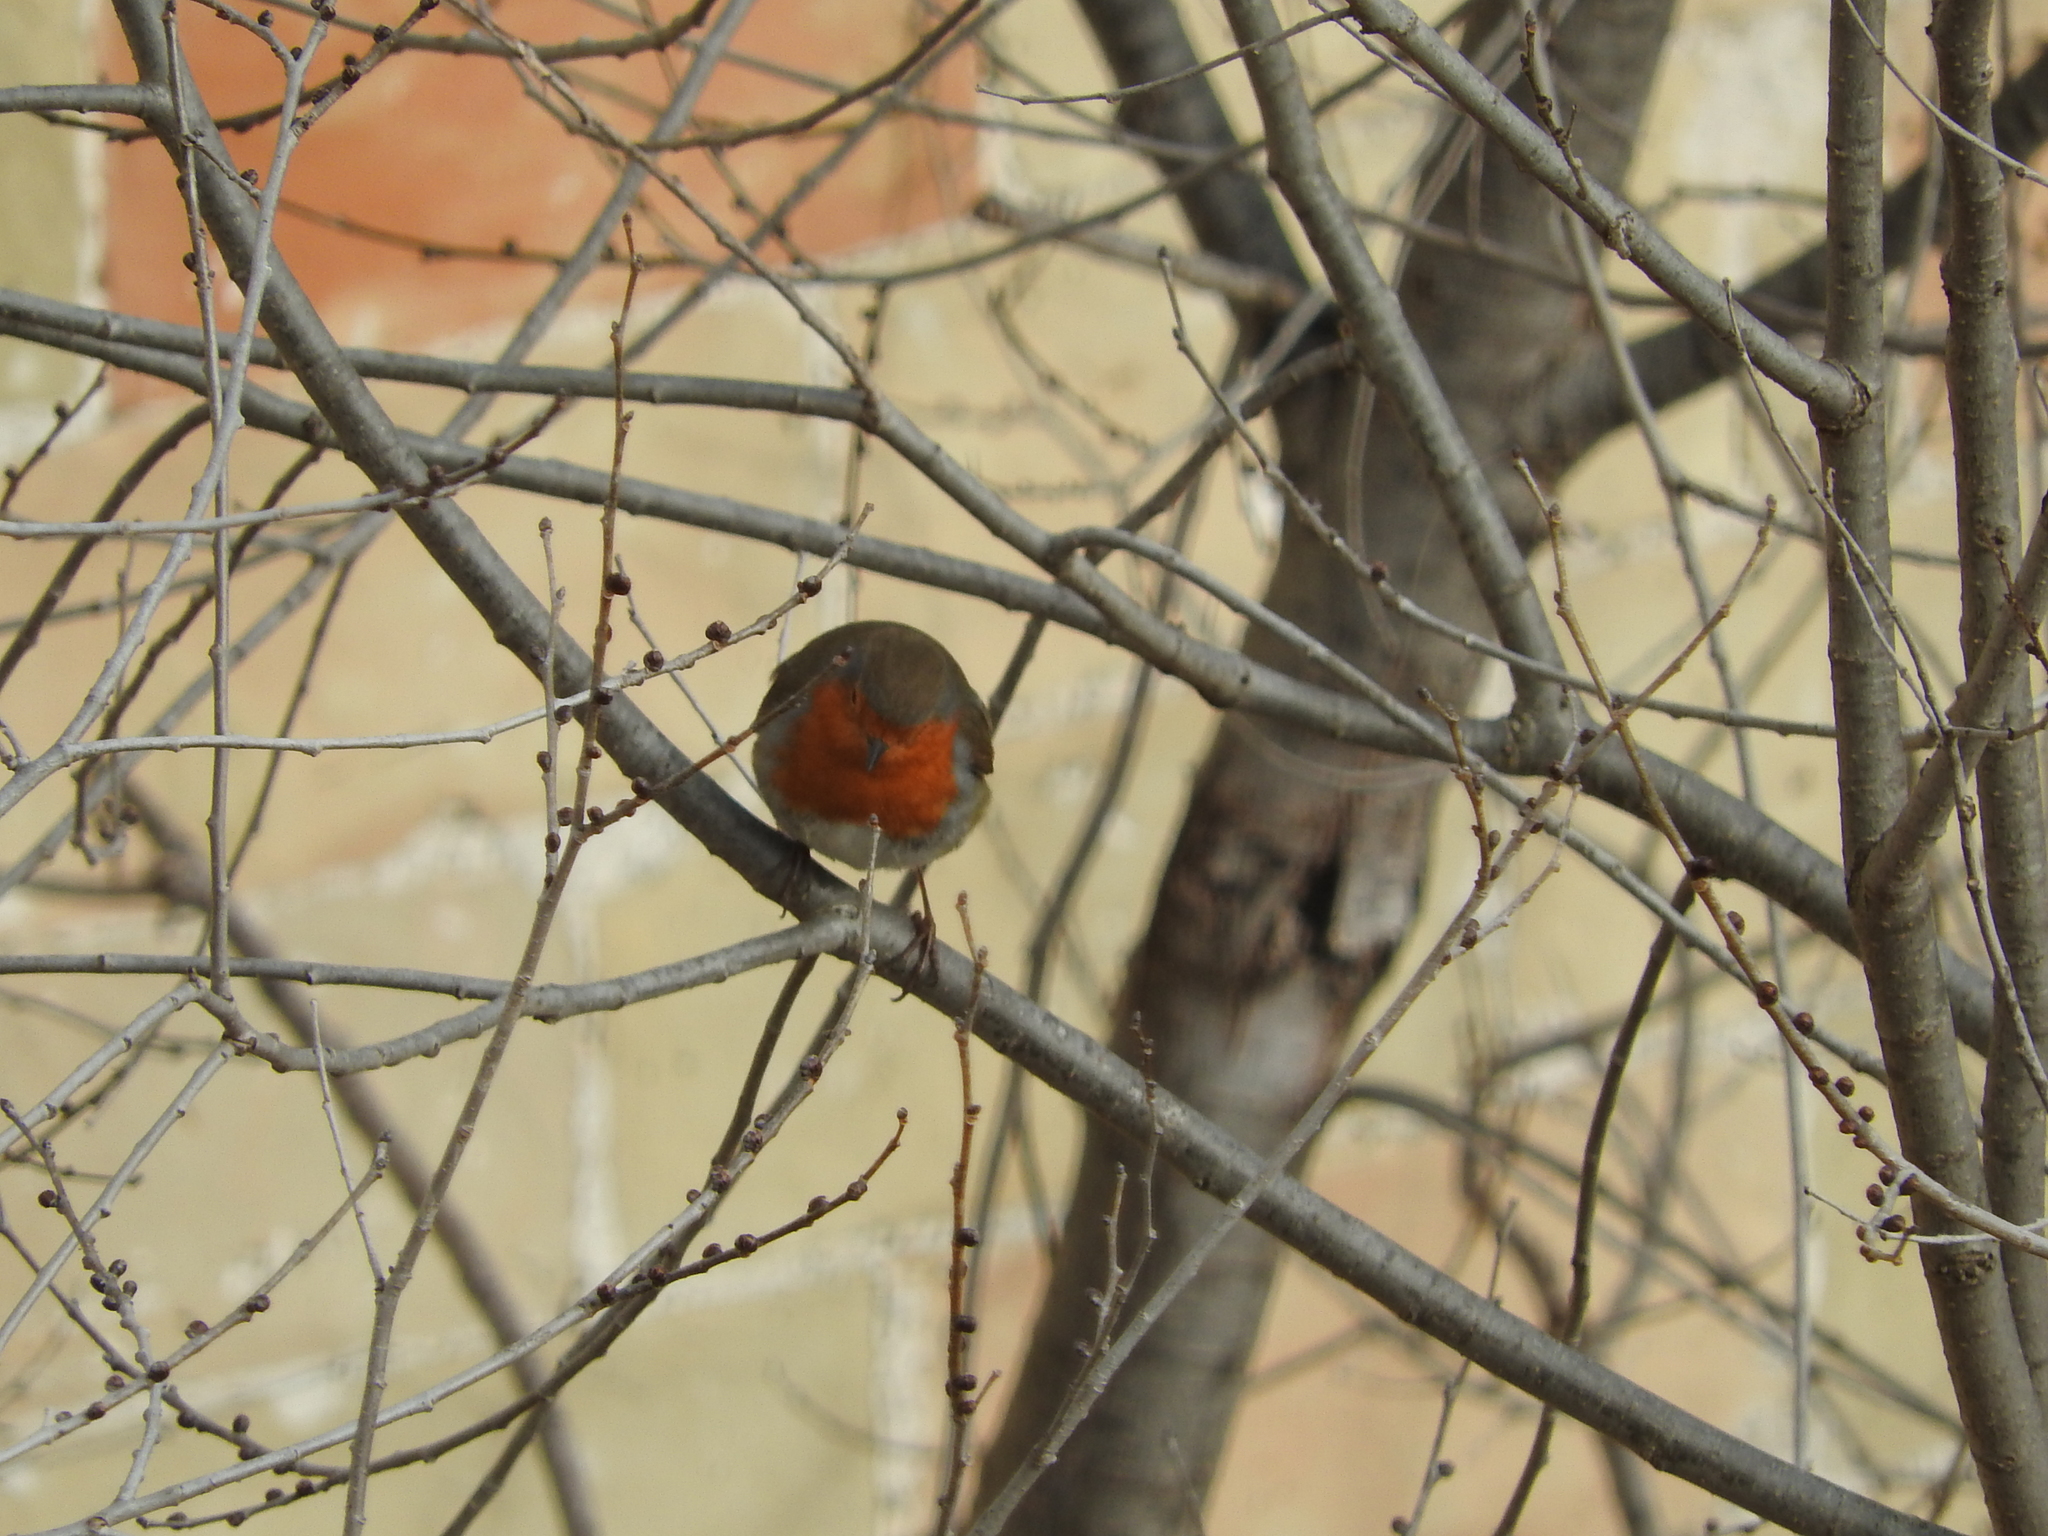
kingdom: Animalia
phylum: Chordata
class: Aves
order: Passeriformes
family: Muscicapidae
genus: Erithacus
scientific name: Erithacus rubecula
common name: European robin
